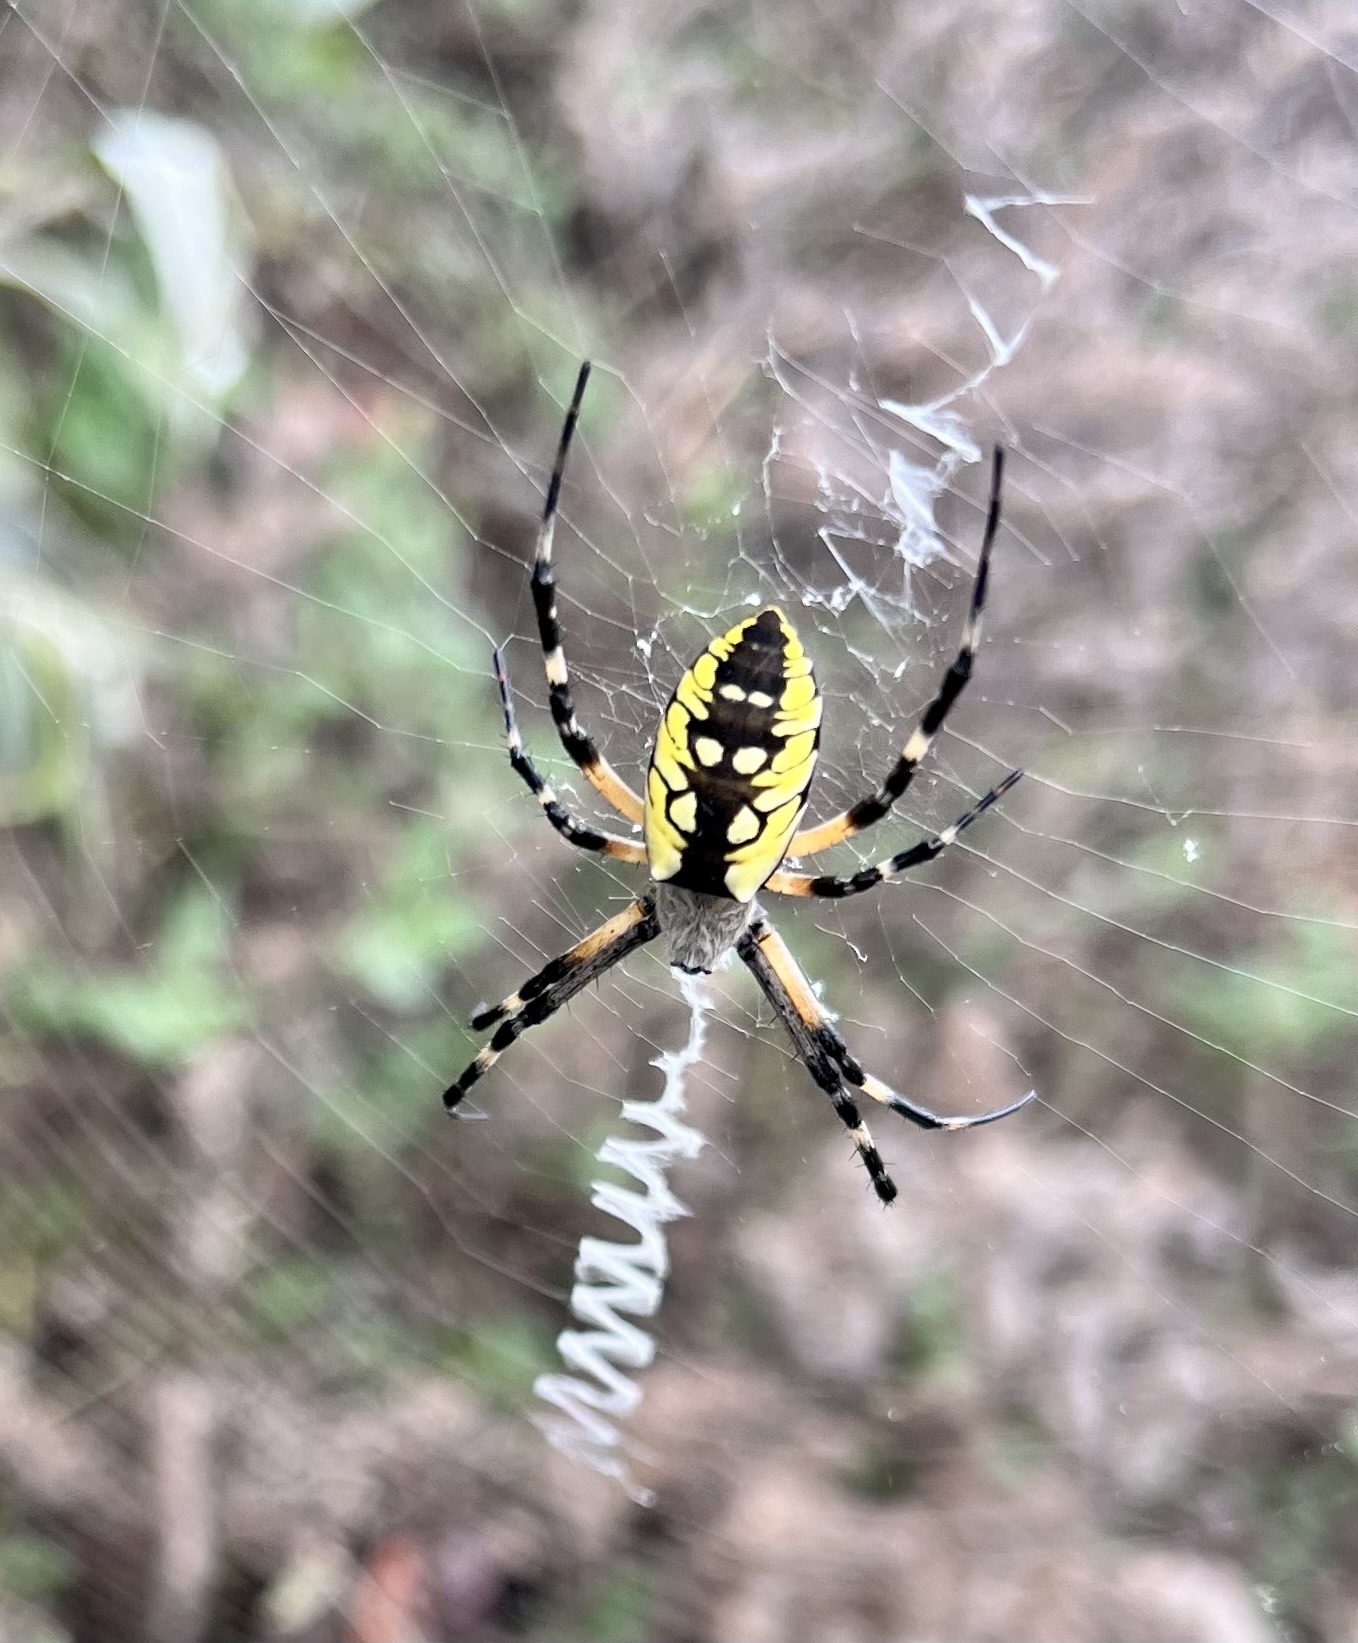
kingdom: Animalia
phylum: Arthropoda
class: Arachnida
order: Araneae
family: Araneidae
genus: Argiope
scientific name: Argiope aurantia
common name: Orb weavers
